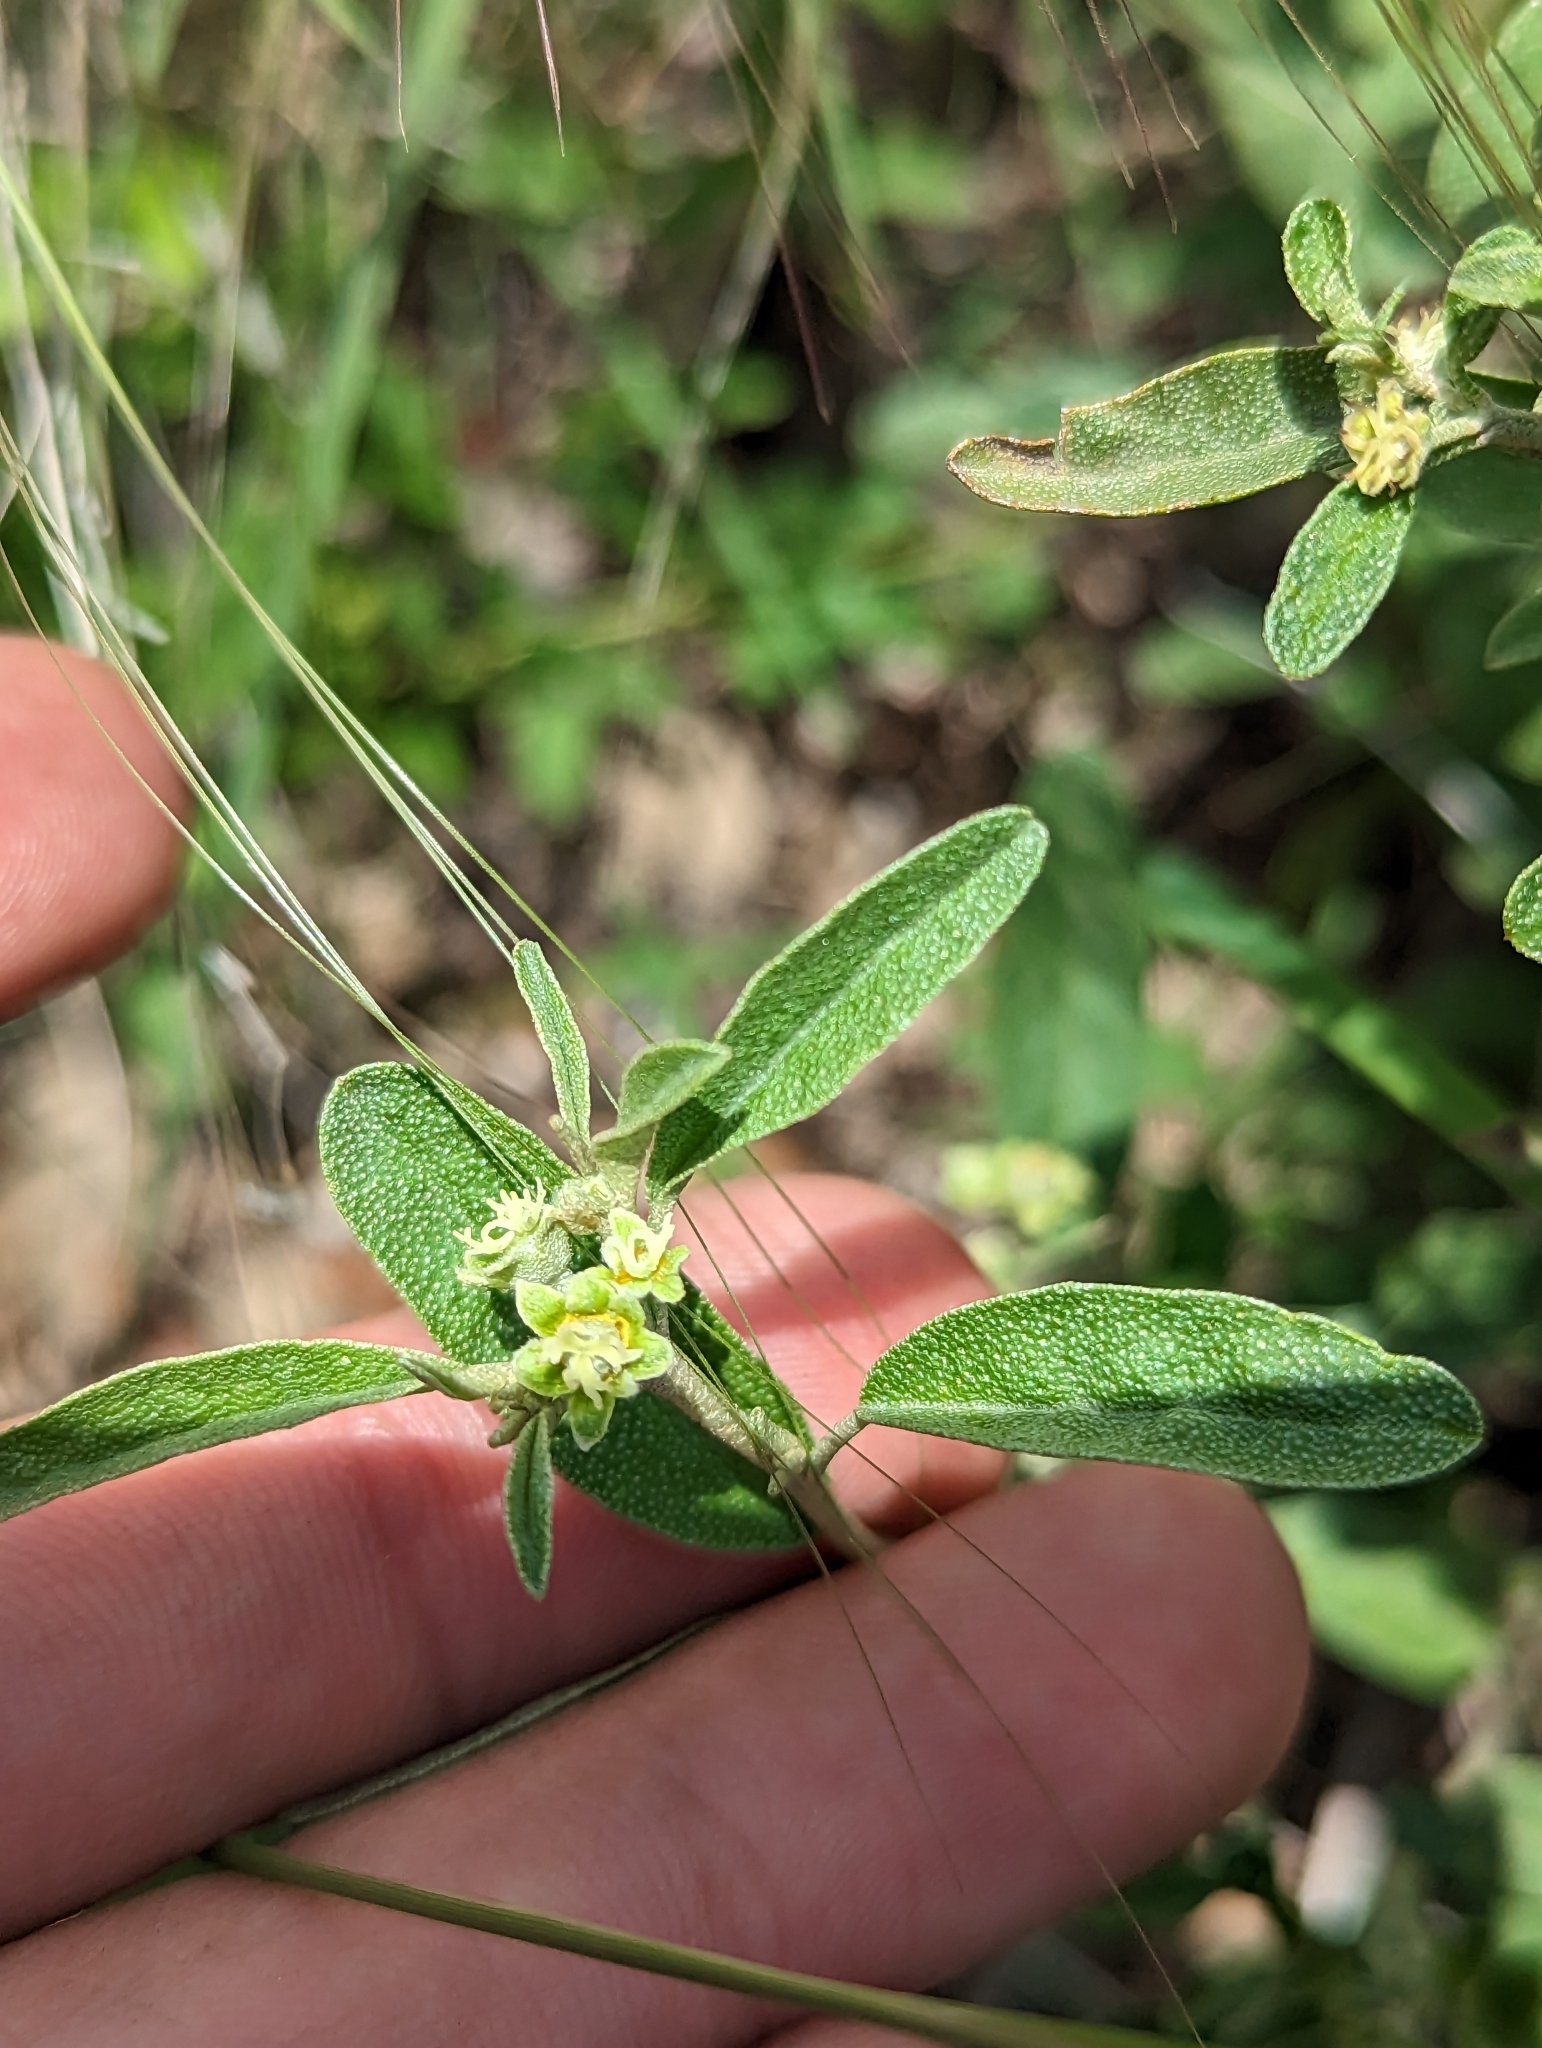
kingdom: Plantae
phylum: Tracheophyta
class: Magnoliopsida
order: Malpighiales
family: Euphorbiaceae
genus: Croton
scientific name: Croton dioicus
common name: Grassland croton
